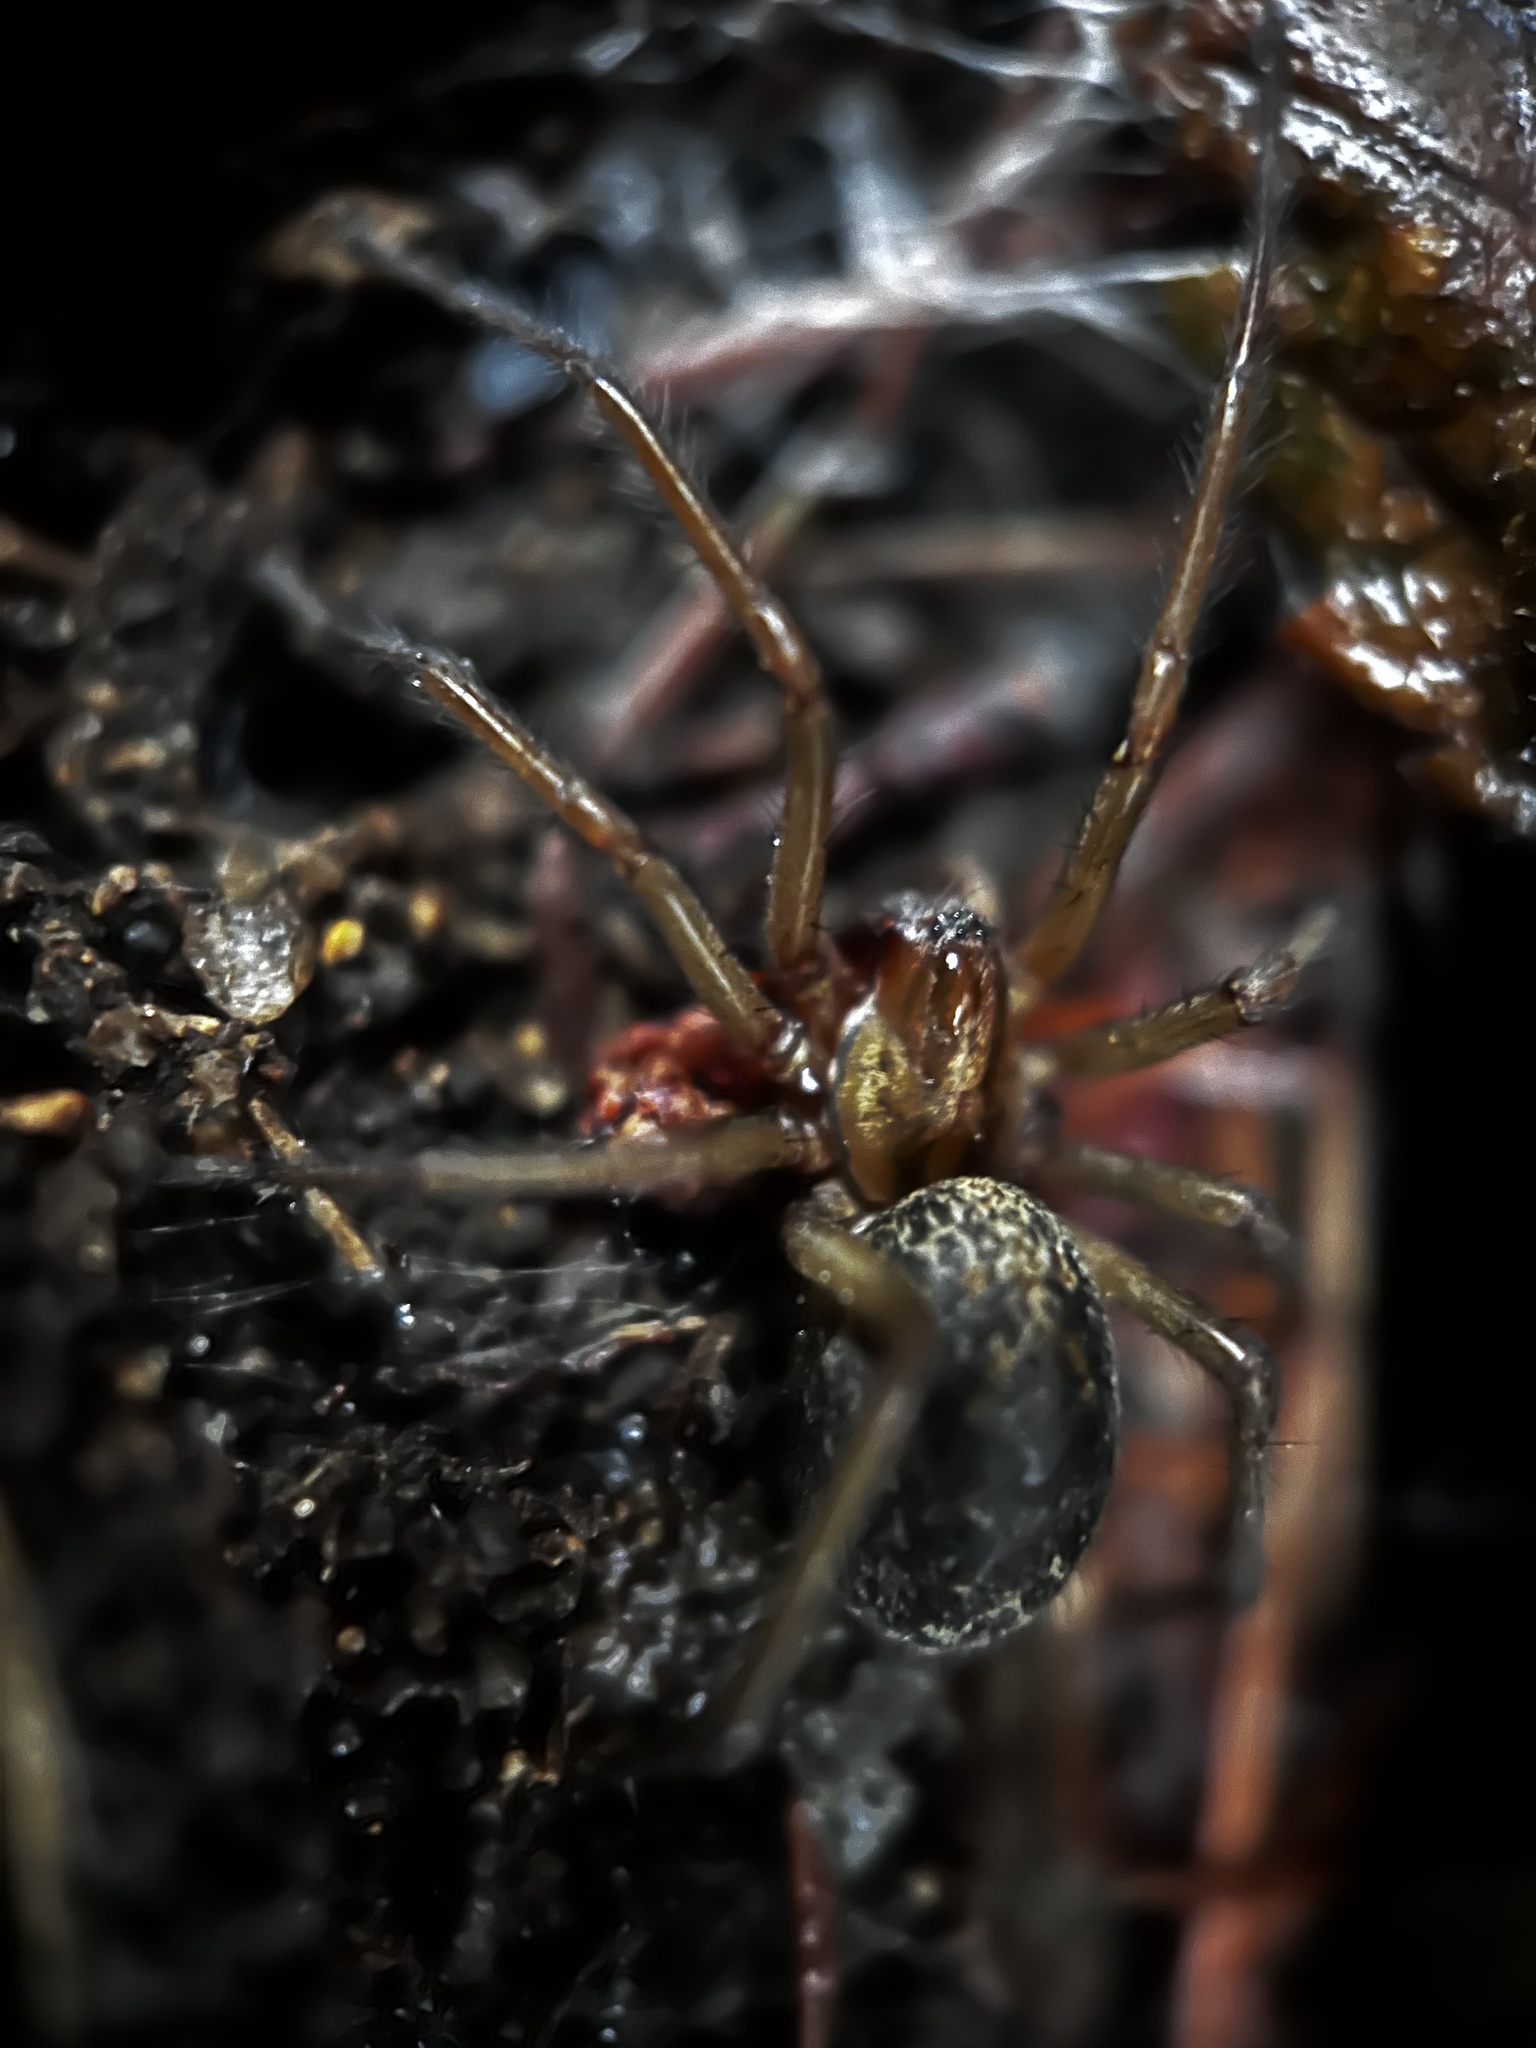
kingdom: Animalia
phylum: Arthropoda
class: Arachnida
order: Araneae
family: Agelenidae
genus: Eratigena
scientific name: Eratigena agrestis
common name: Hobo spider
